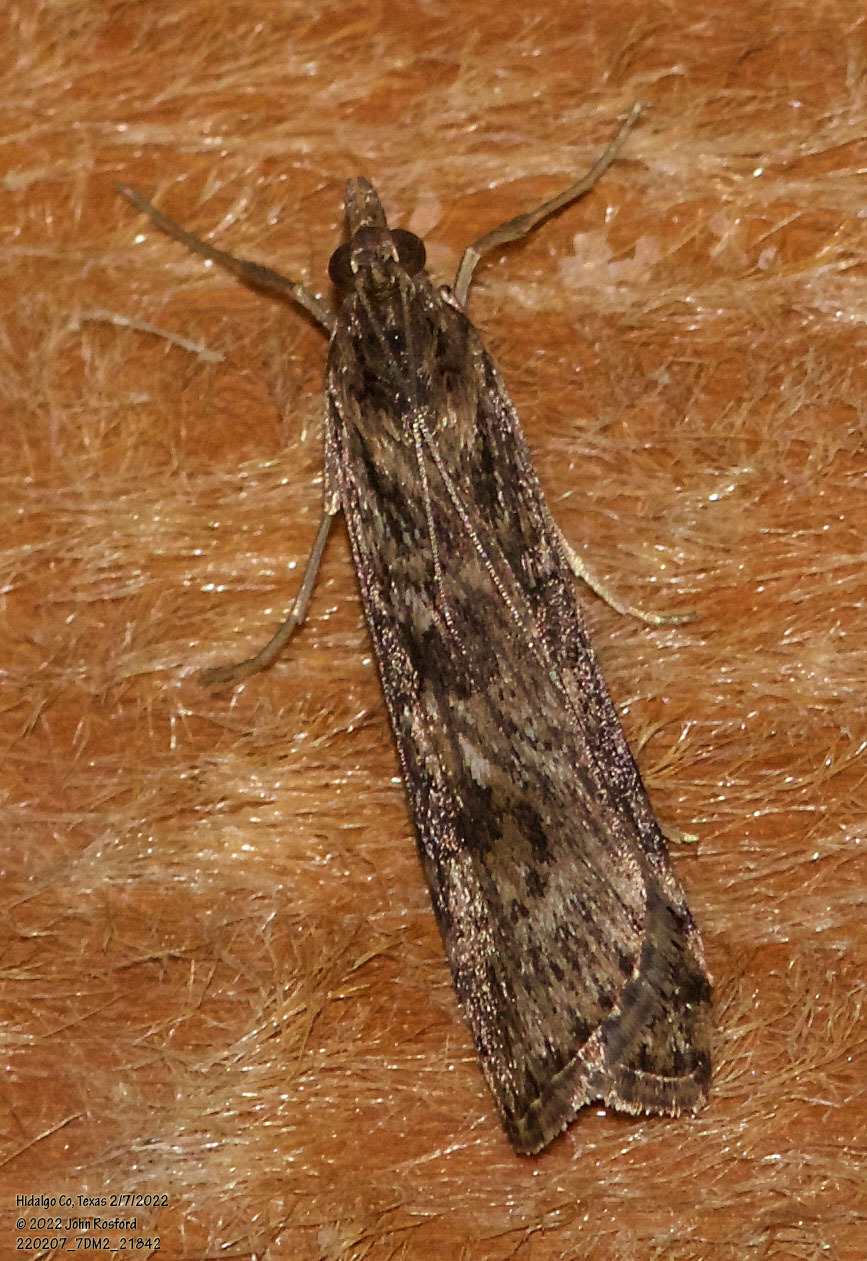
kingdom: Animalia
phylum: Arthropoda
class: Insecta
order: Lepidoptera
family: Crambidae
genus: Nomophila
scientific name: Nomophila nearctica
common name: American rush veneer
